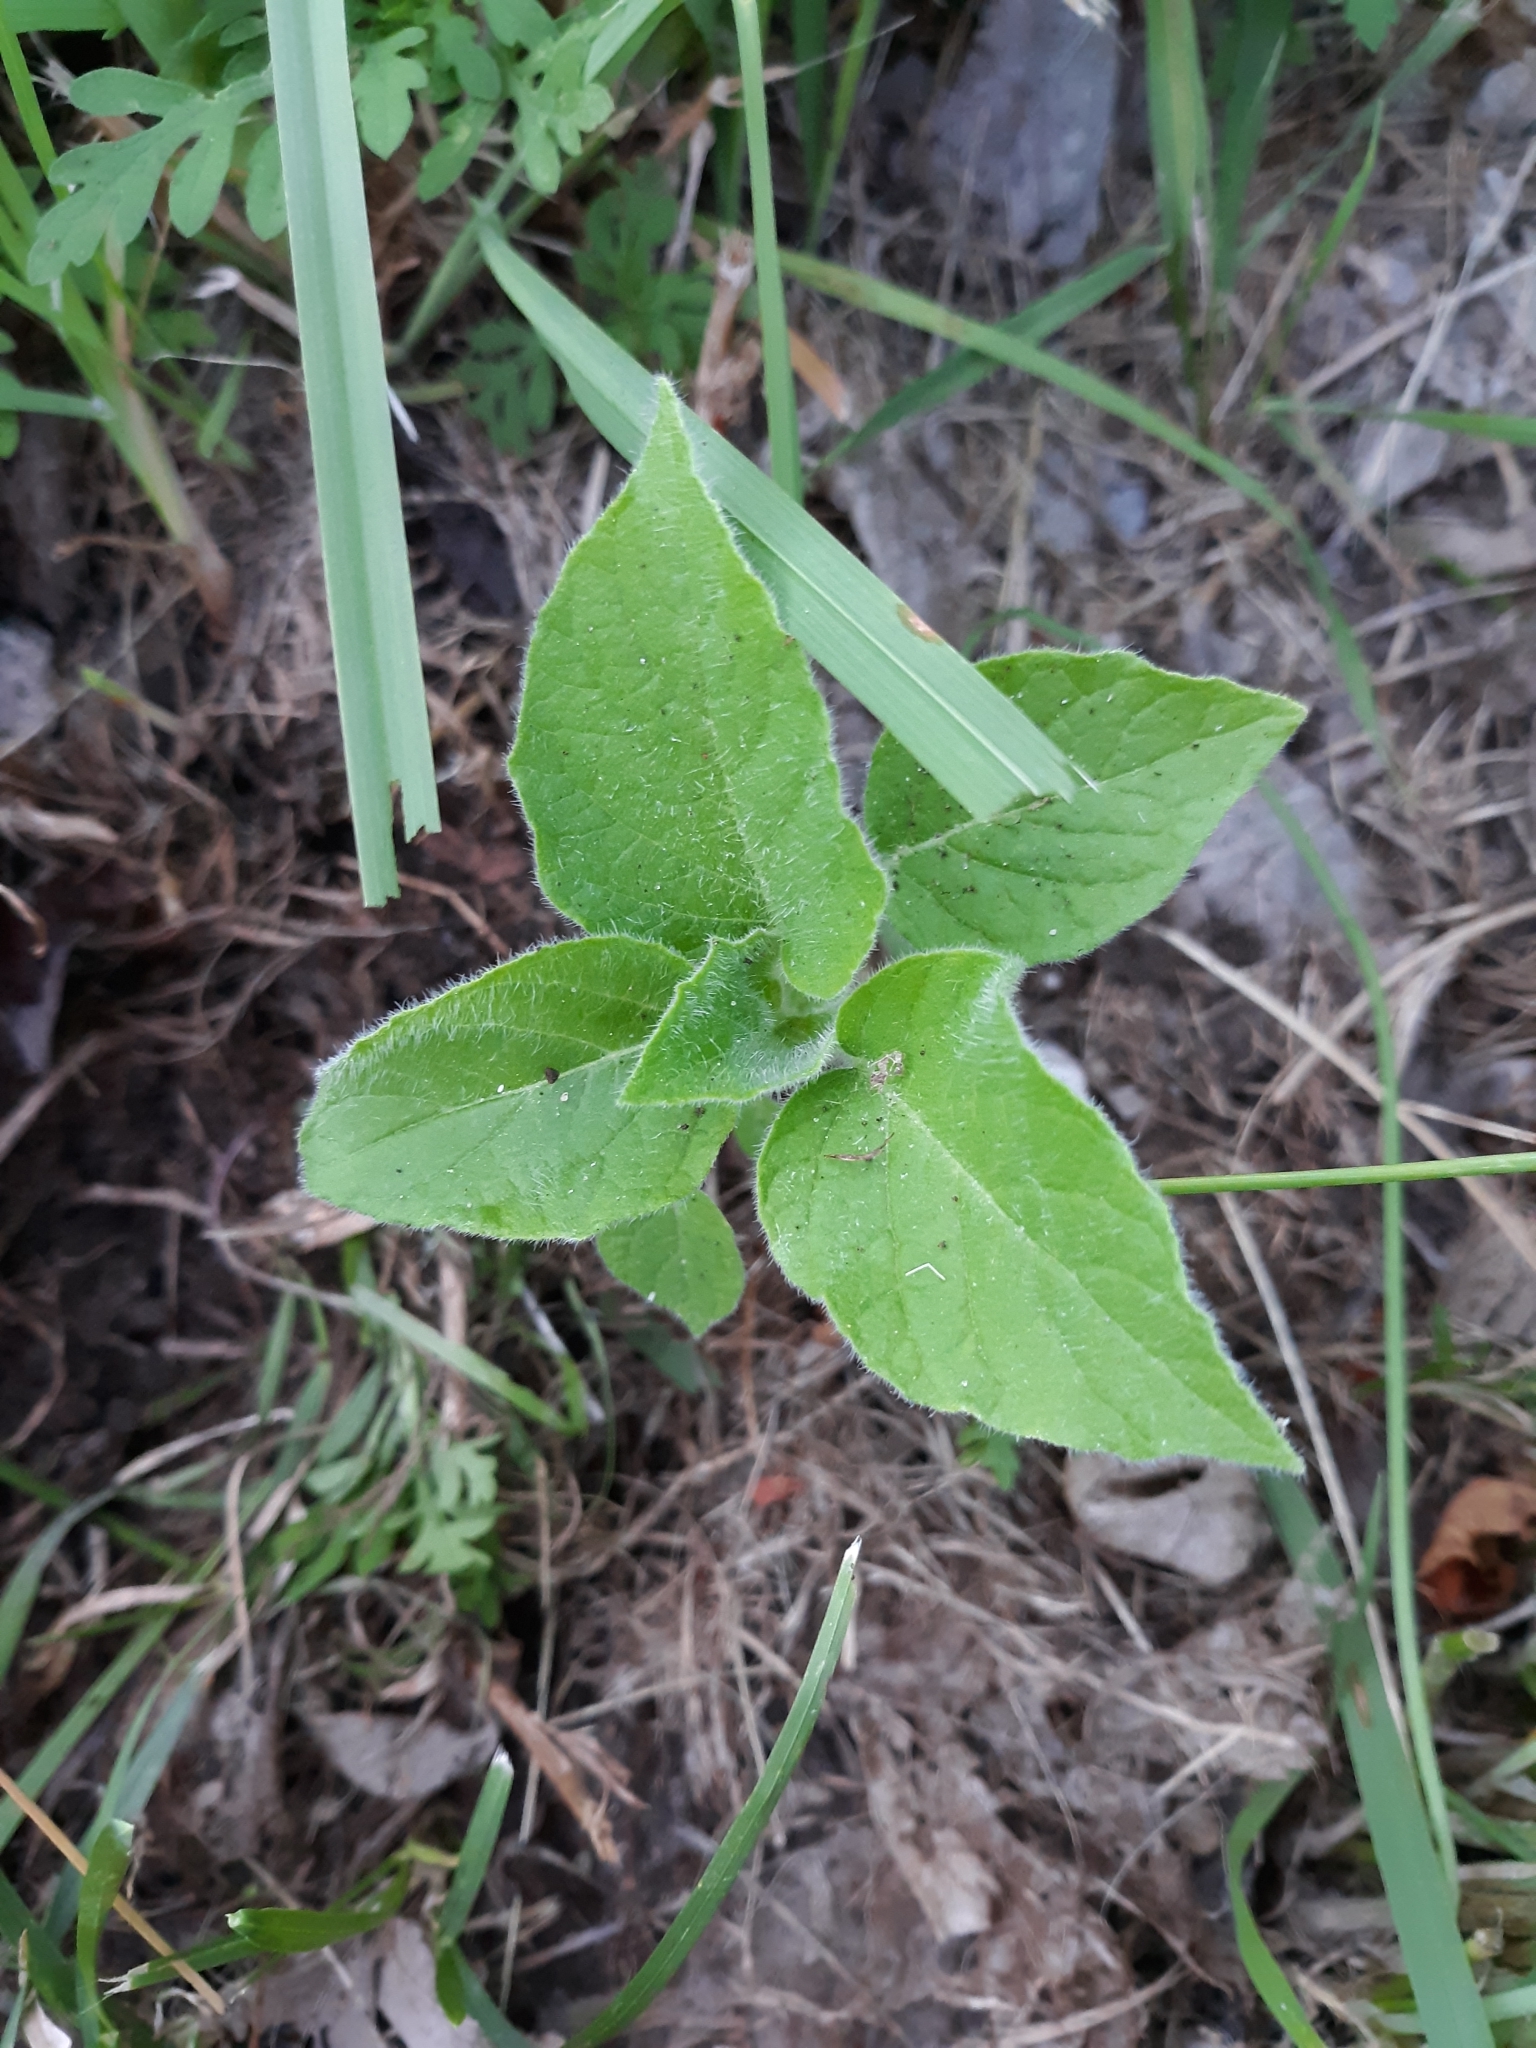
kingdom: Plantae
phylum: Tracheophyta
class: Magnoliopsida
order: Solanales
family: Solanaceae
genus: Physalis
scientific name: Physalis heterophylla
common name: Clammy ground-cherry
